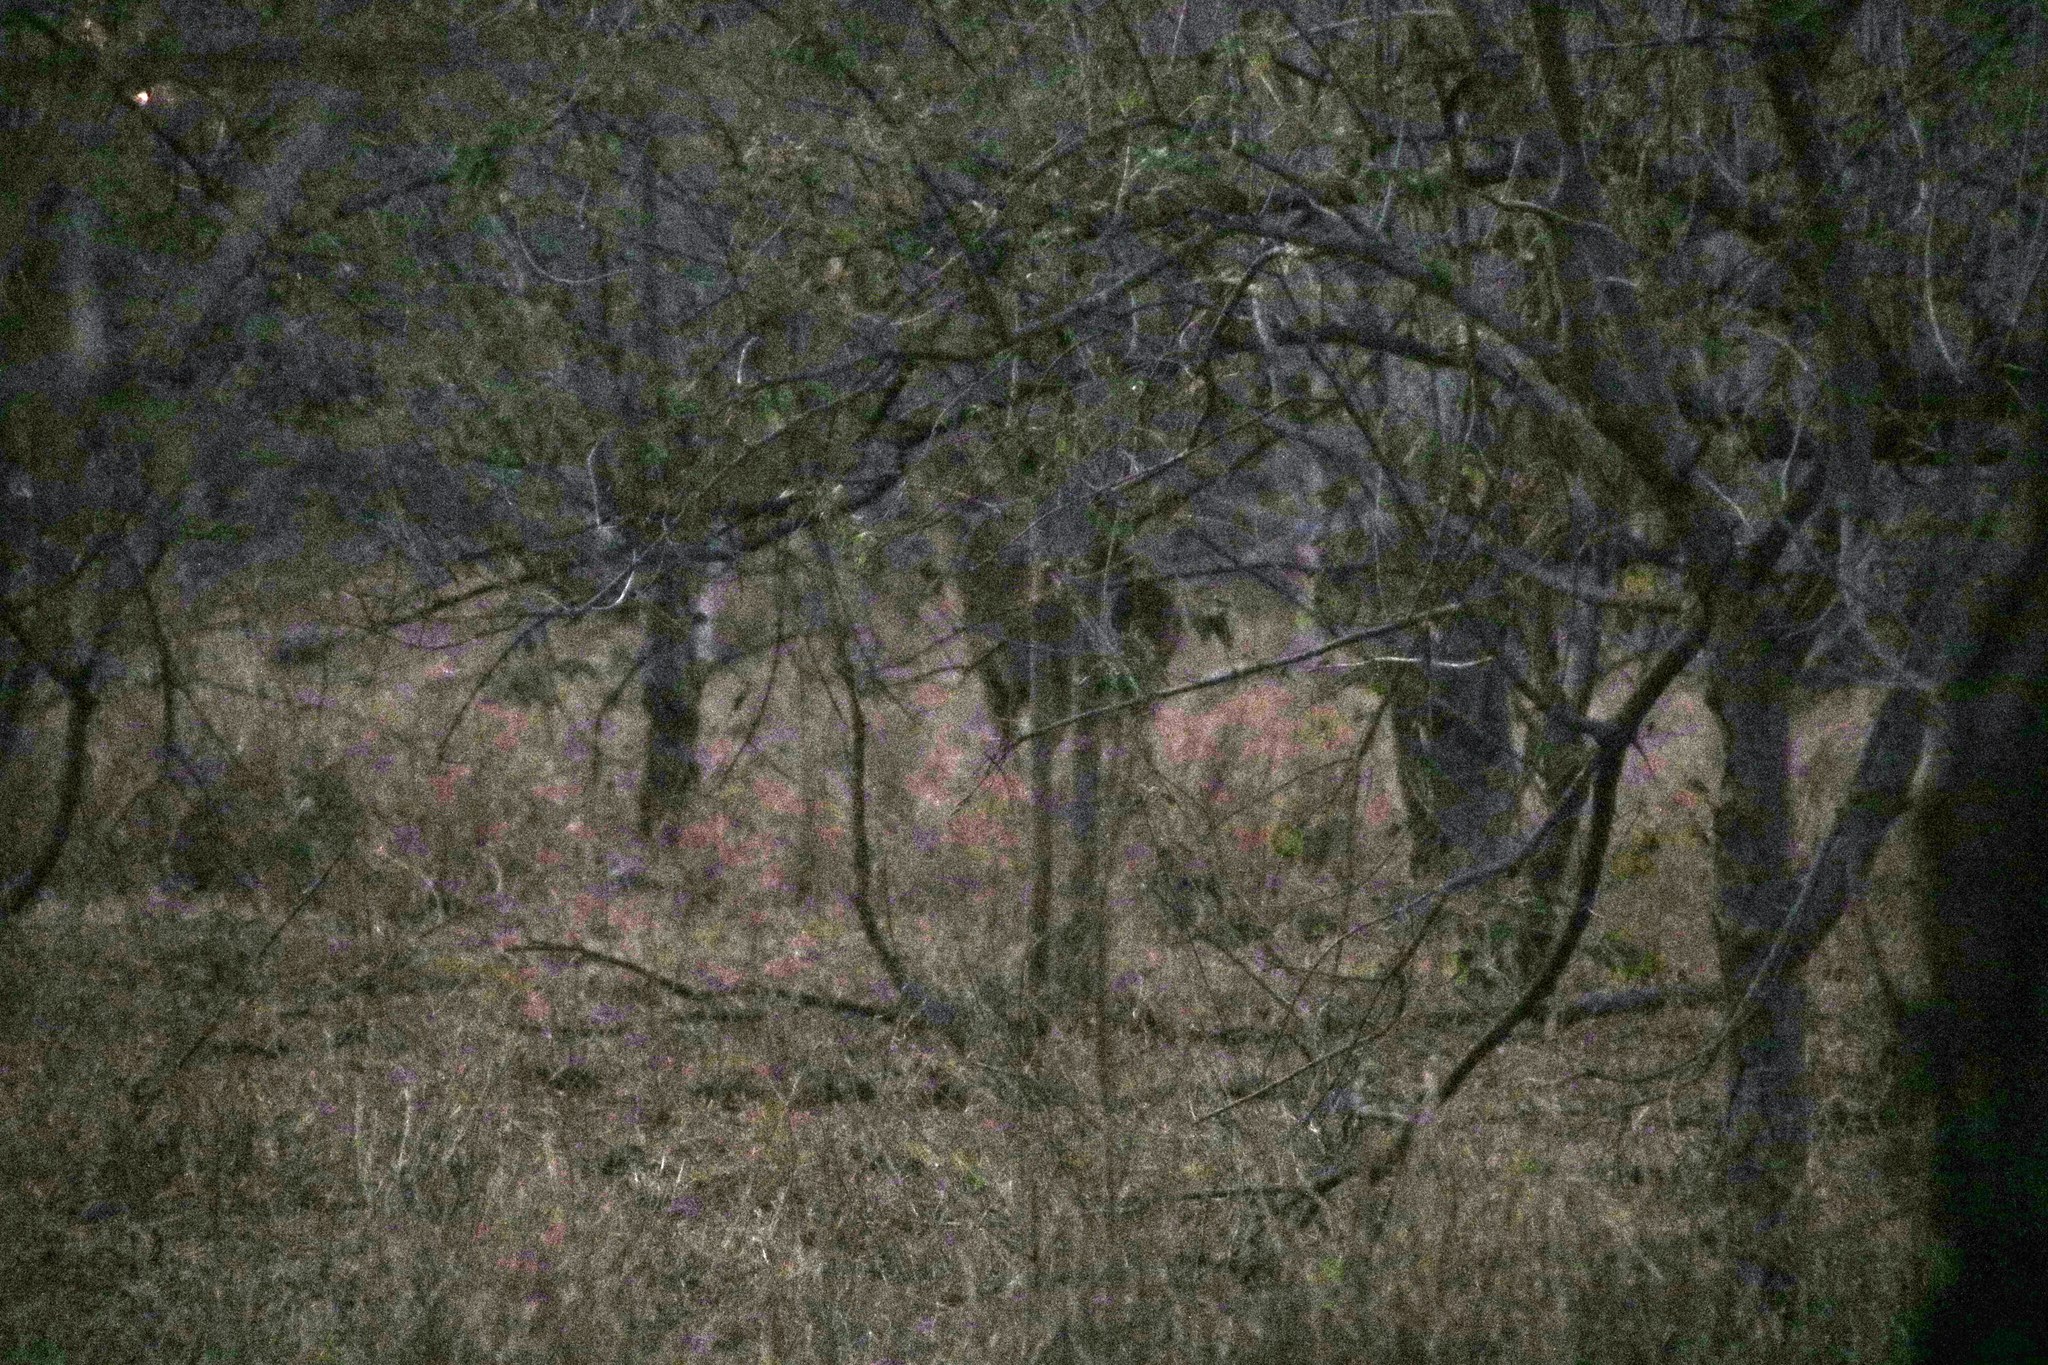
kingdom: Animalia
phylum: Chordata
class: Mammalia
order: Artiodactyla
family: Bovidae
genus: Kobus
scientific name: Kobus ellipsiprymnus
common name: Waterbuck
